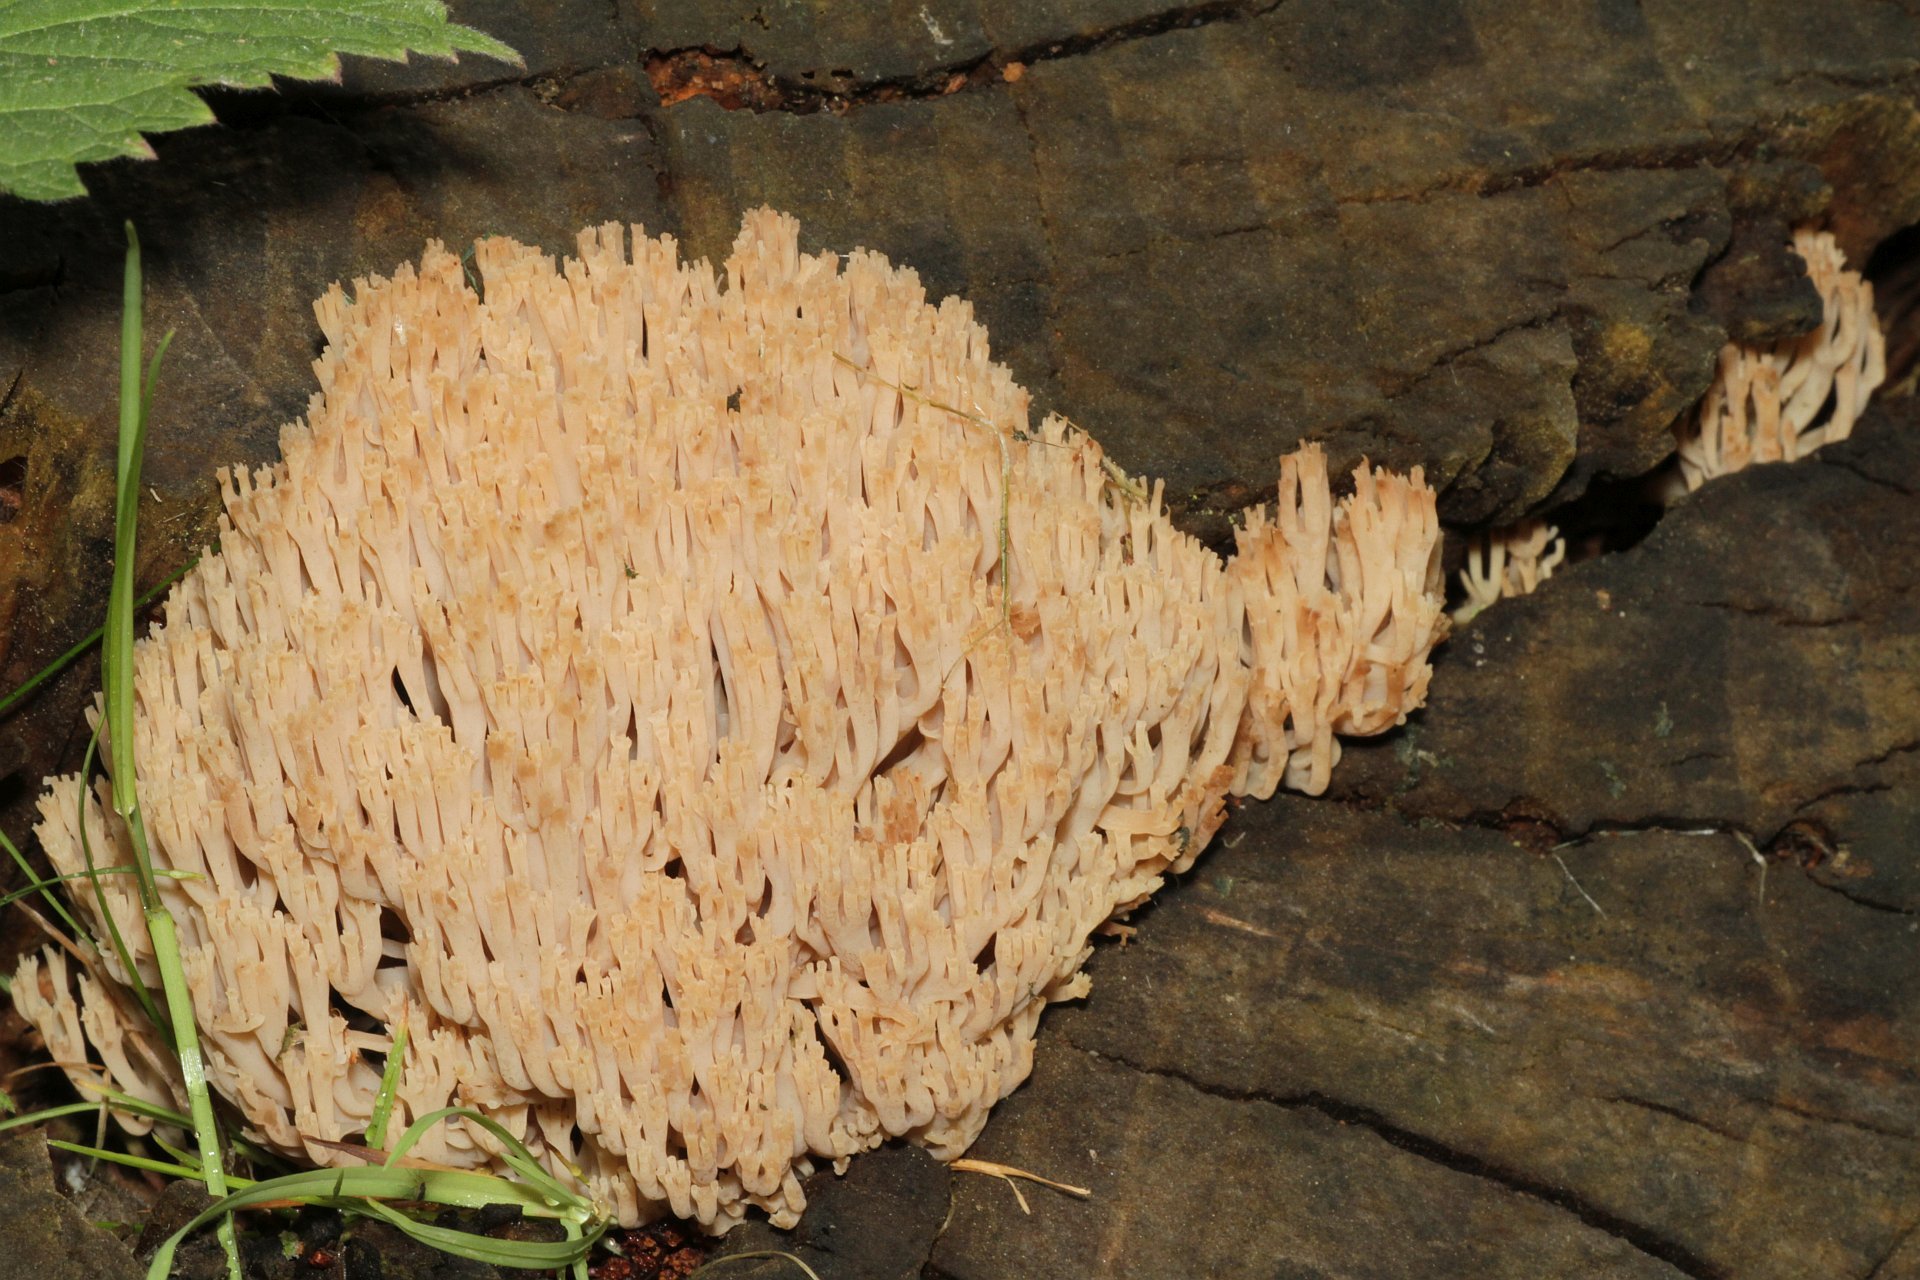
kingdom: Fungi
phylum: Basidiomycota
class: Agaricomycetes
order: Russulales
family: Auriscalpiaceae
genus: Artomyces
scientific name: Artomyces pyxidatus
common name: Crown-tipped coral fungus
